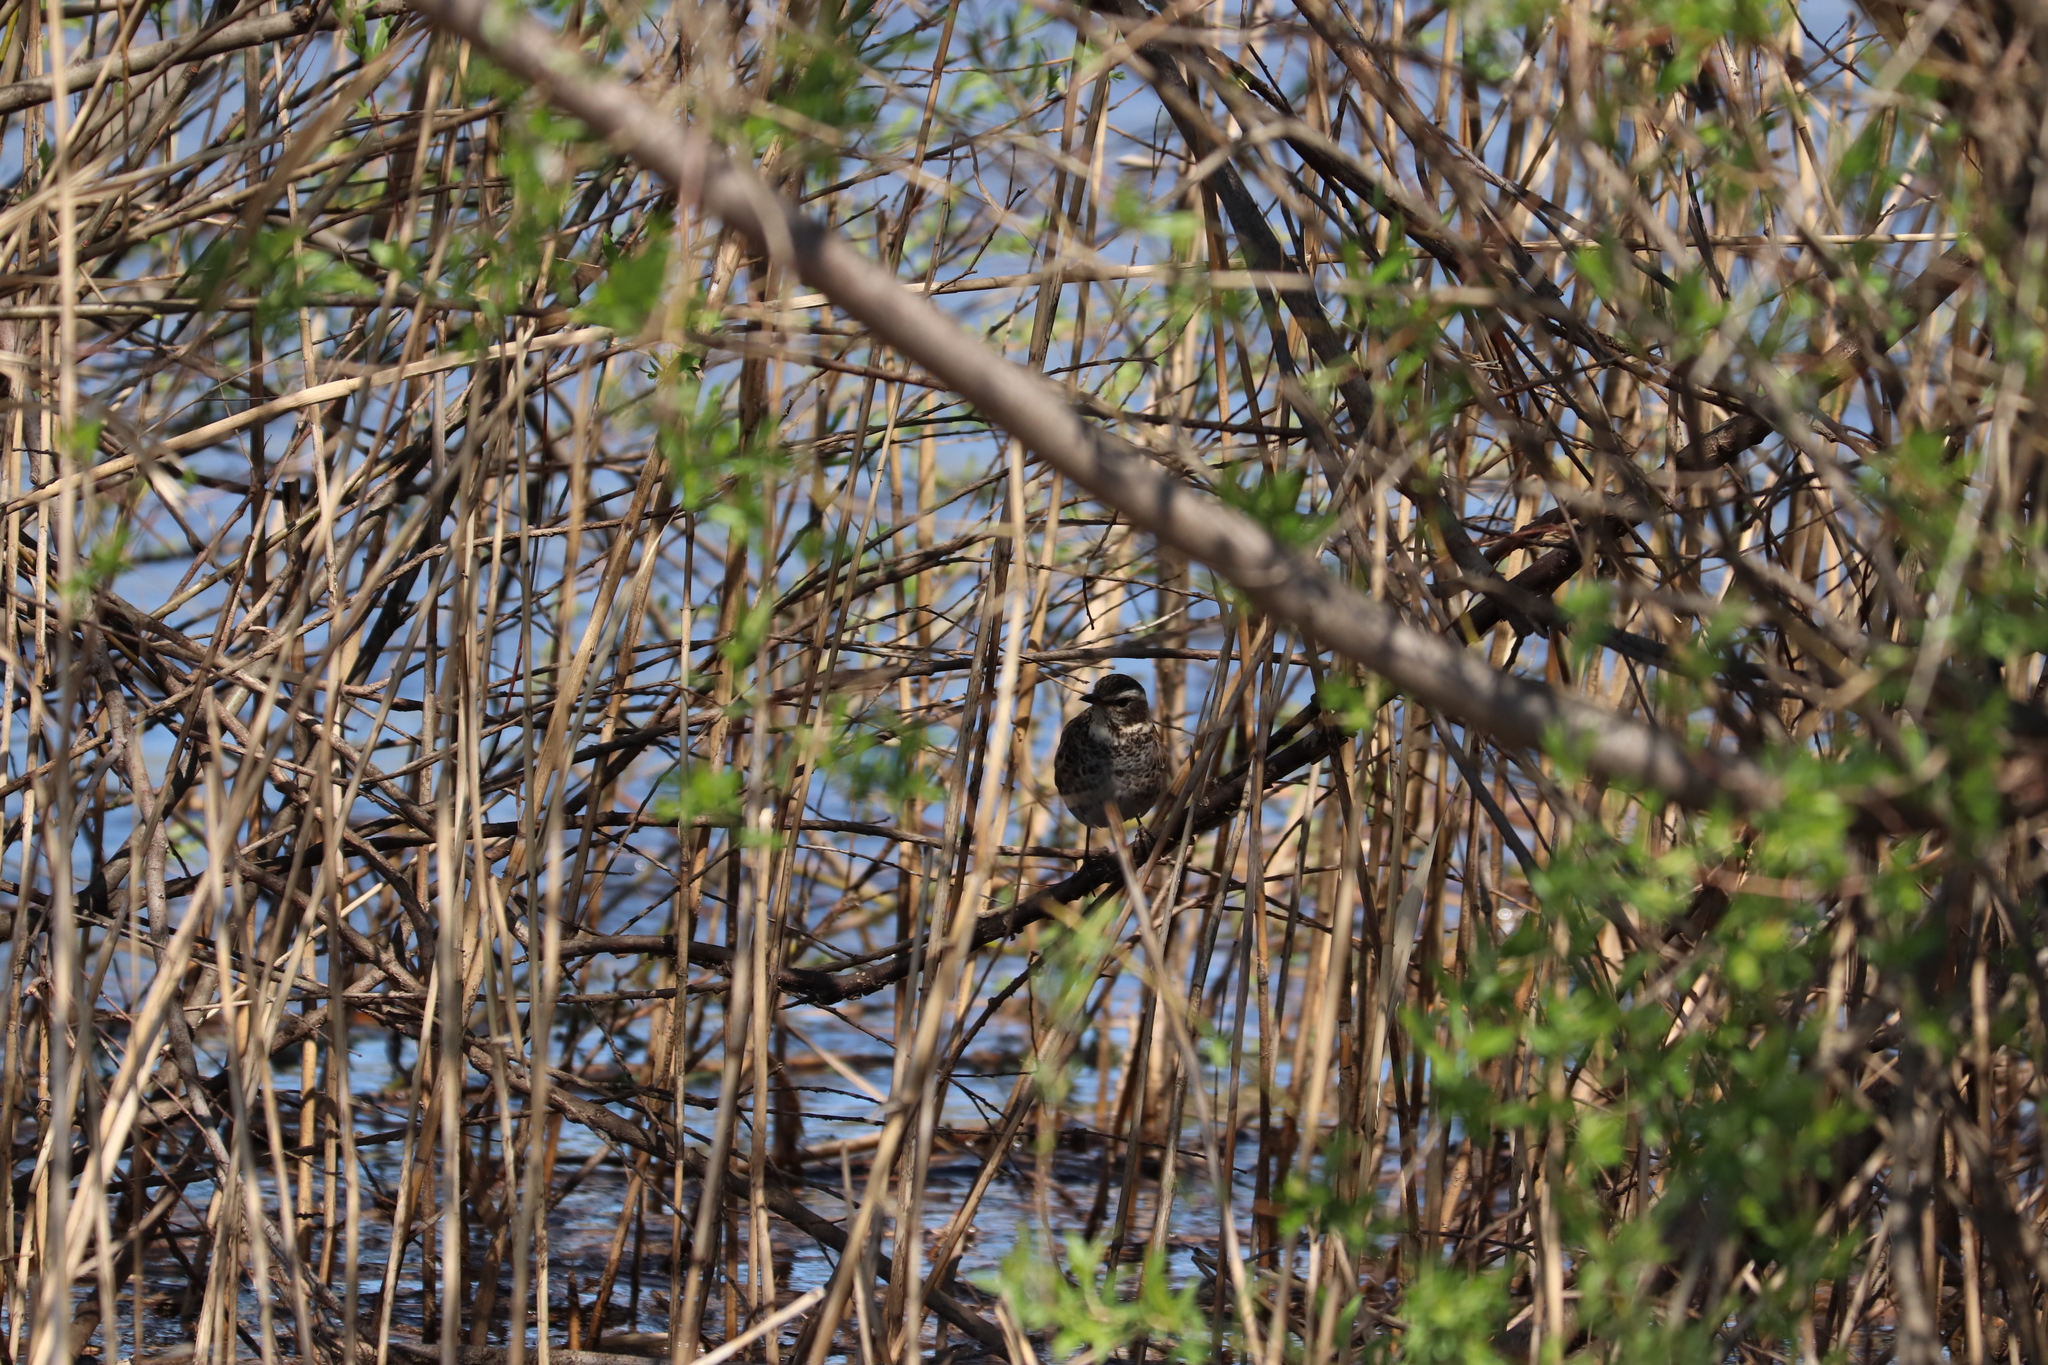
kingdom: Animalia
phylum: Chordata
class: Aves
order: Passeriformes
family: Turdidae
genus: Turdus
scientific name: Turdus eunomus
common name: Dusky thrush
